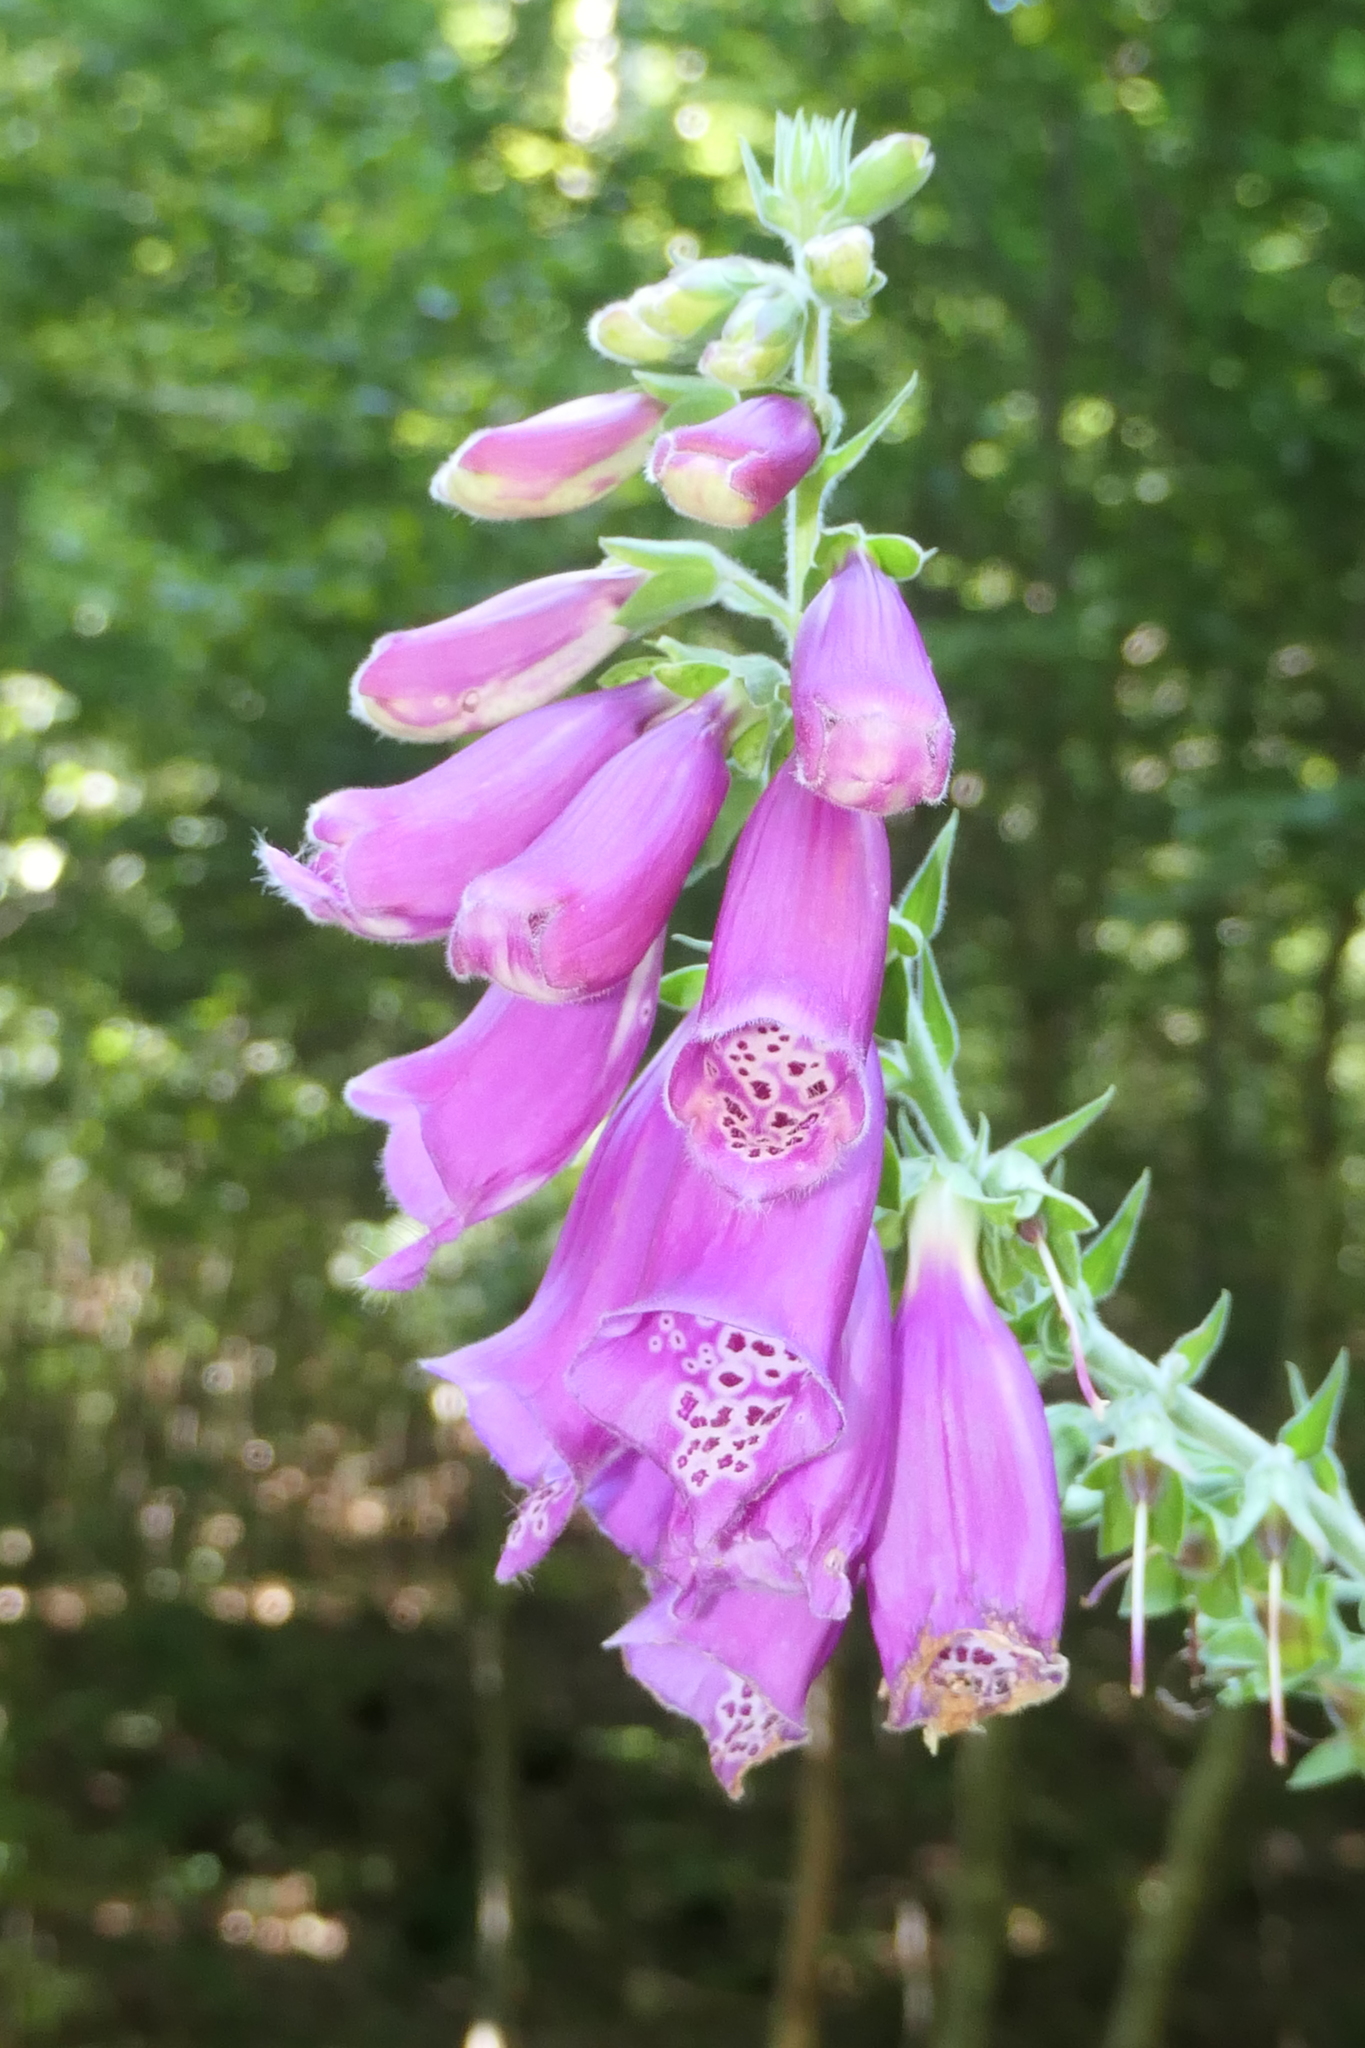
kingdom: Plantae
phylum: Tracheophyta
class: Magnoliopsida
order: Lamiales
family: Plantaginaceae
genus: Digitalis
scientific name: Digitalis purpurea
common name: Foxglove
